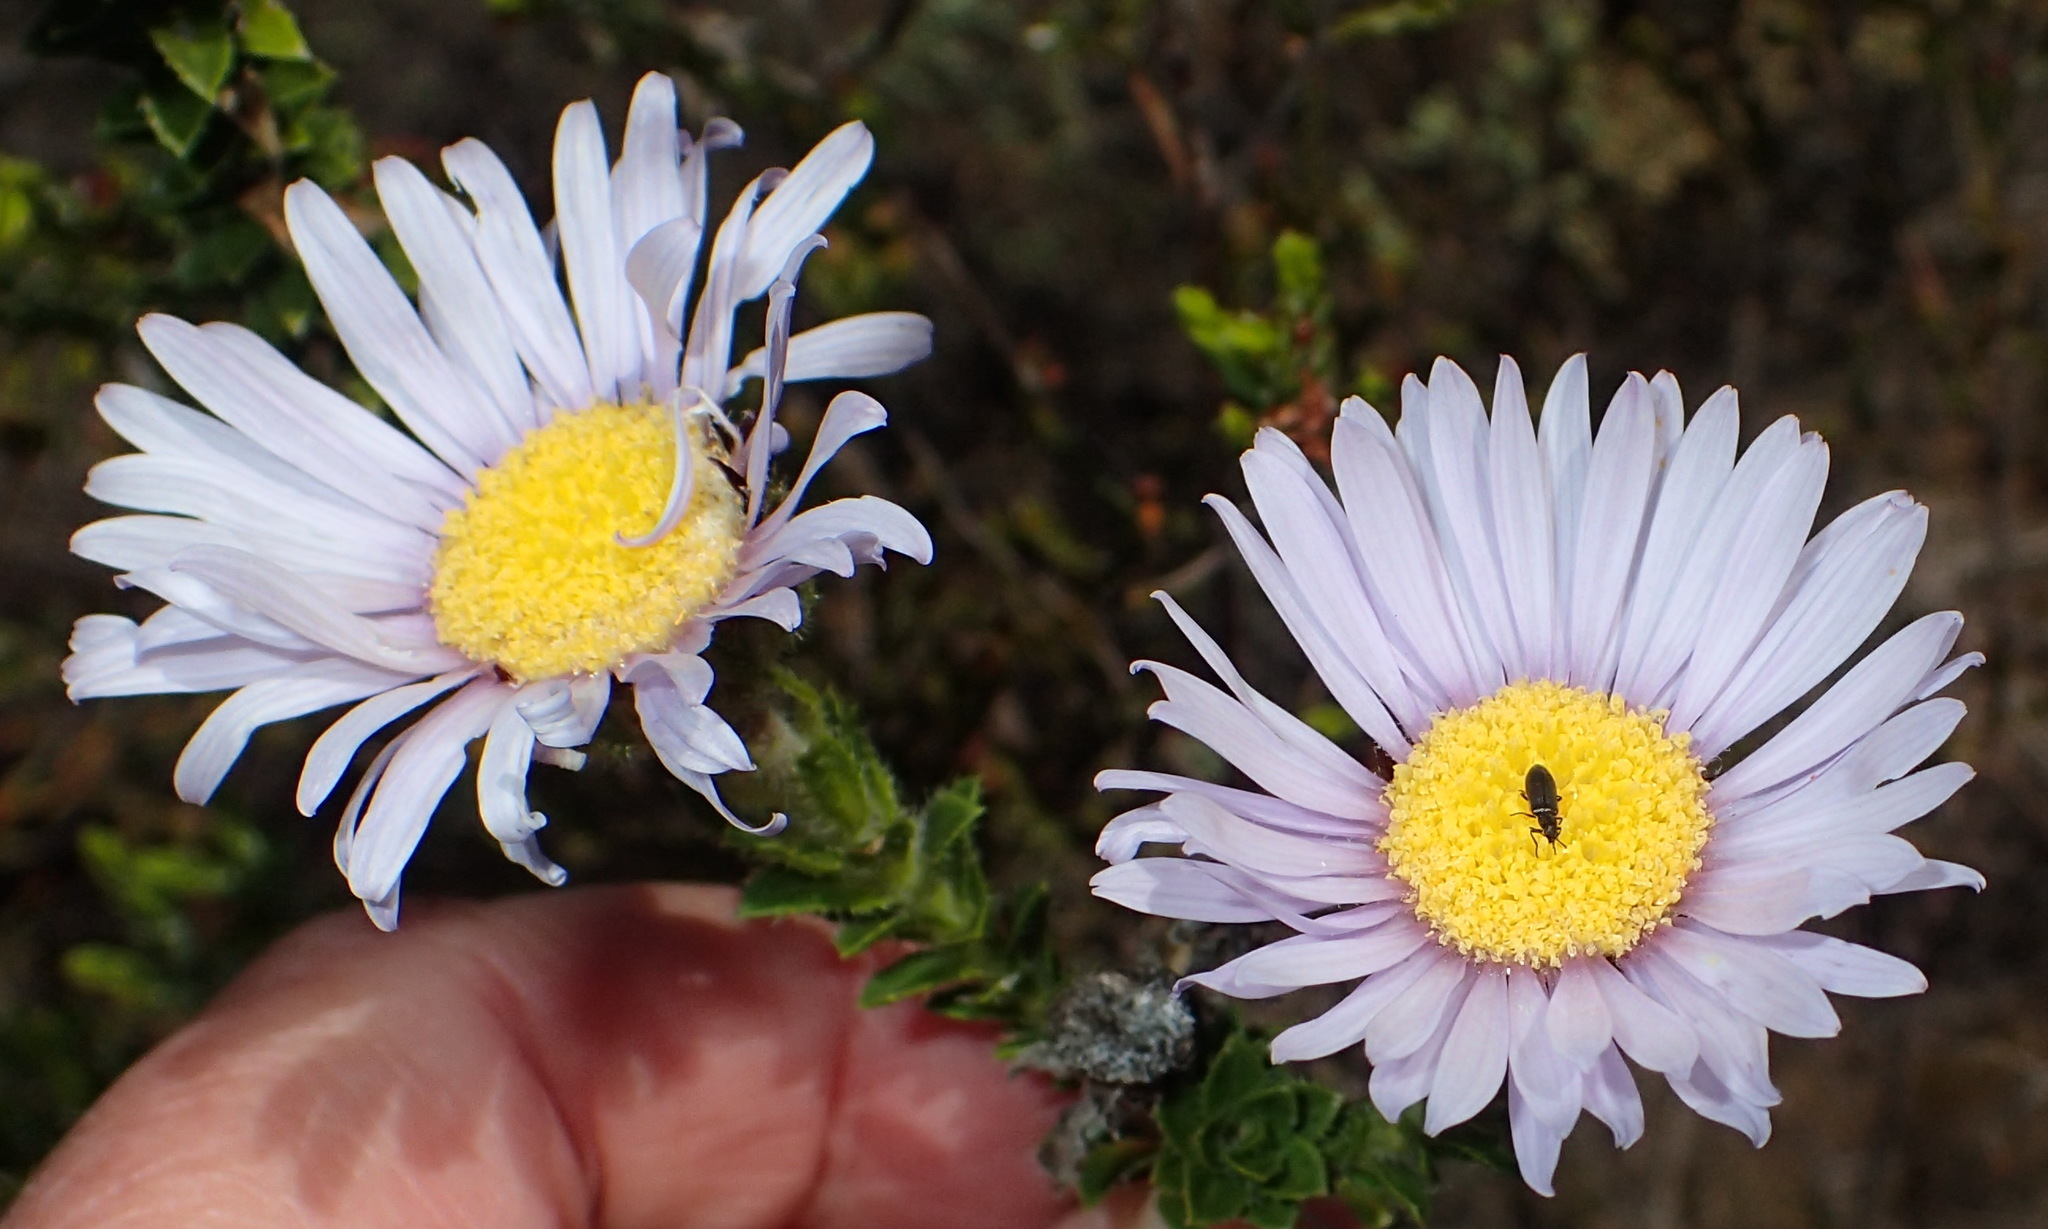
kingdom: Plantae
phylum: Tracheophyta
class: Magnoliopsida
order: Asterales
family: Asteraceae
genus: Felicia
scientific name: Felicia echinata
